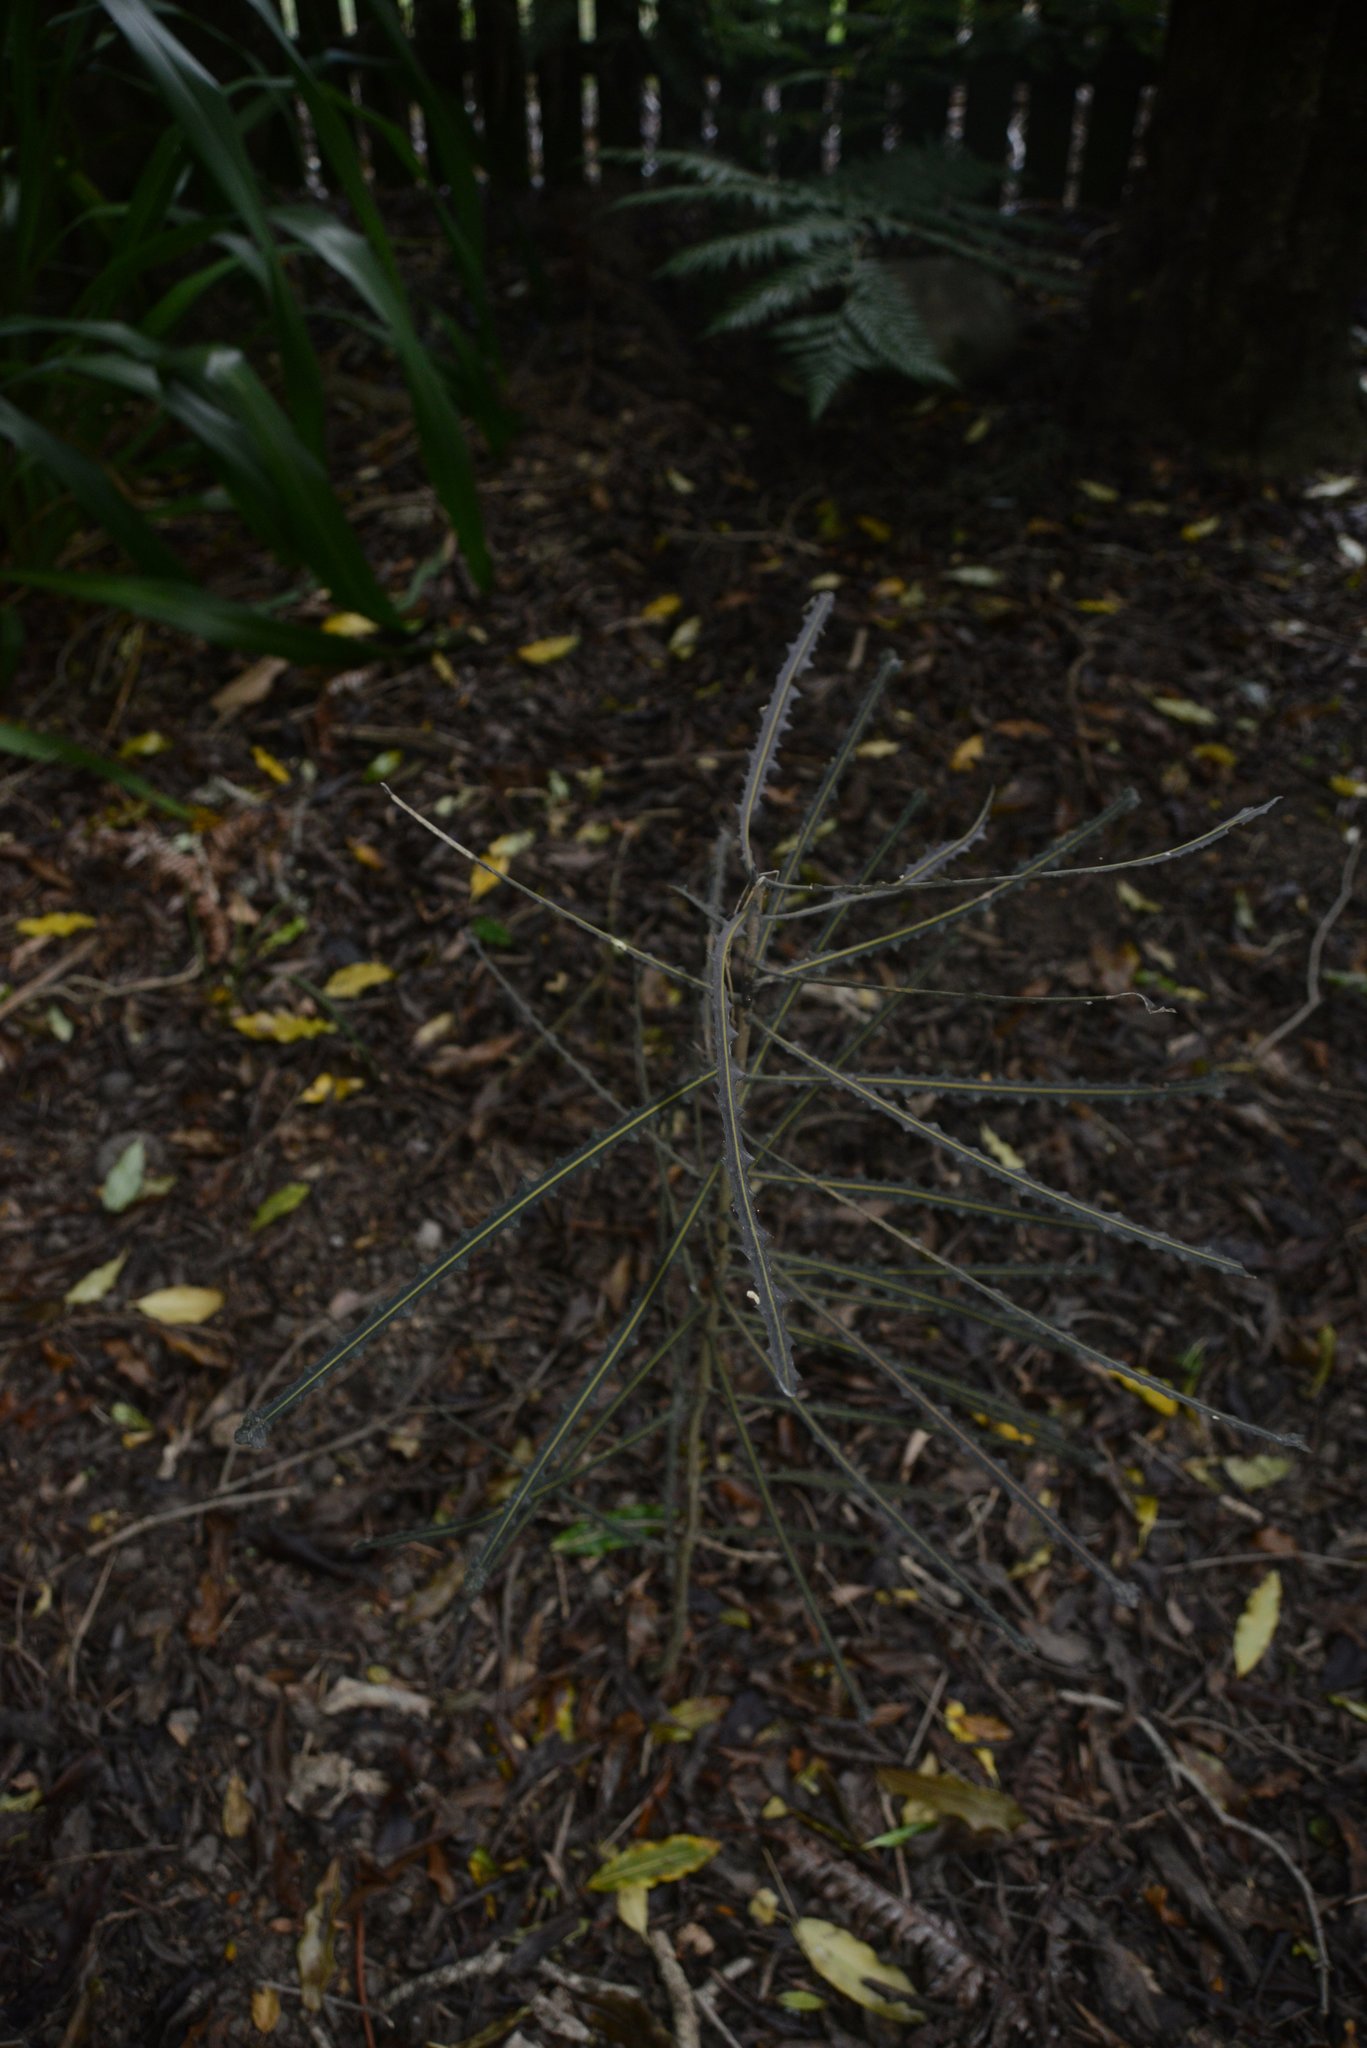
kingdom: Plantae
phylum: Tracheophyta
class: Magnoliopsida
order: Apiales
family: Araliaceae
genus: Pseudopanax
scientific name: Pseudopanax ferox
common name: Fierce lancewood
